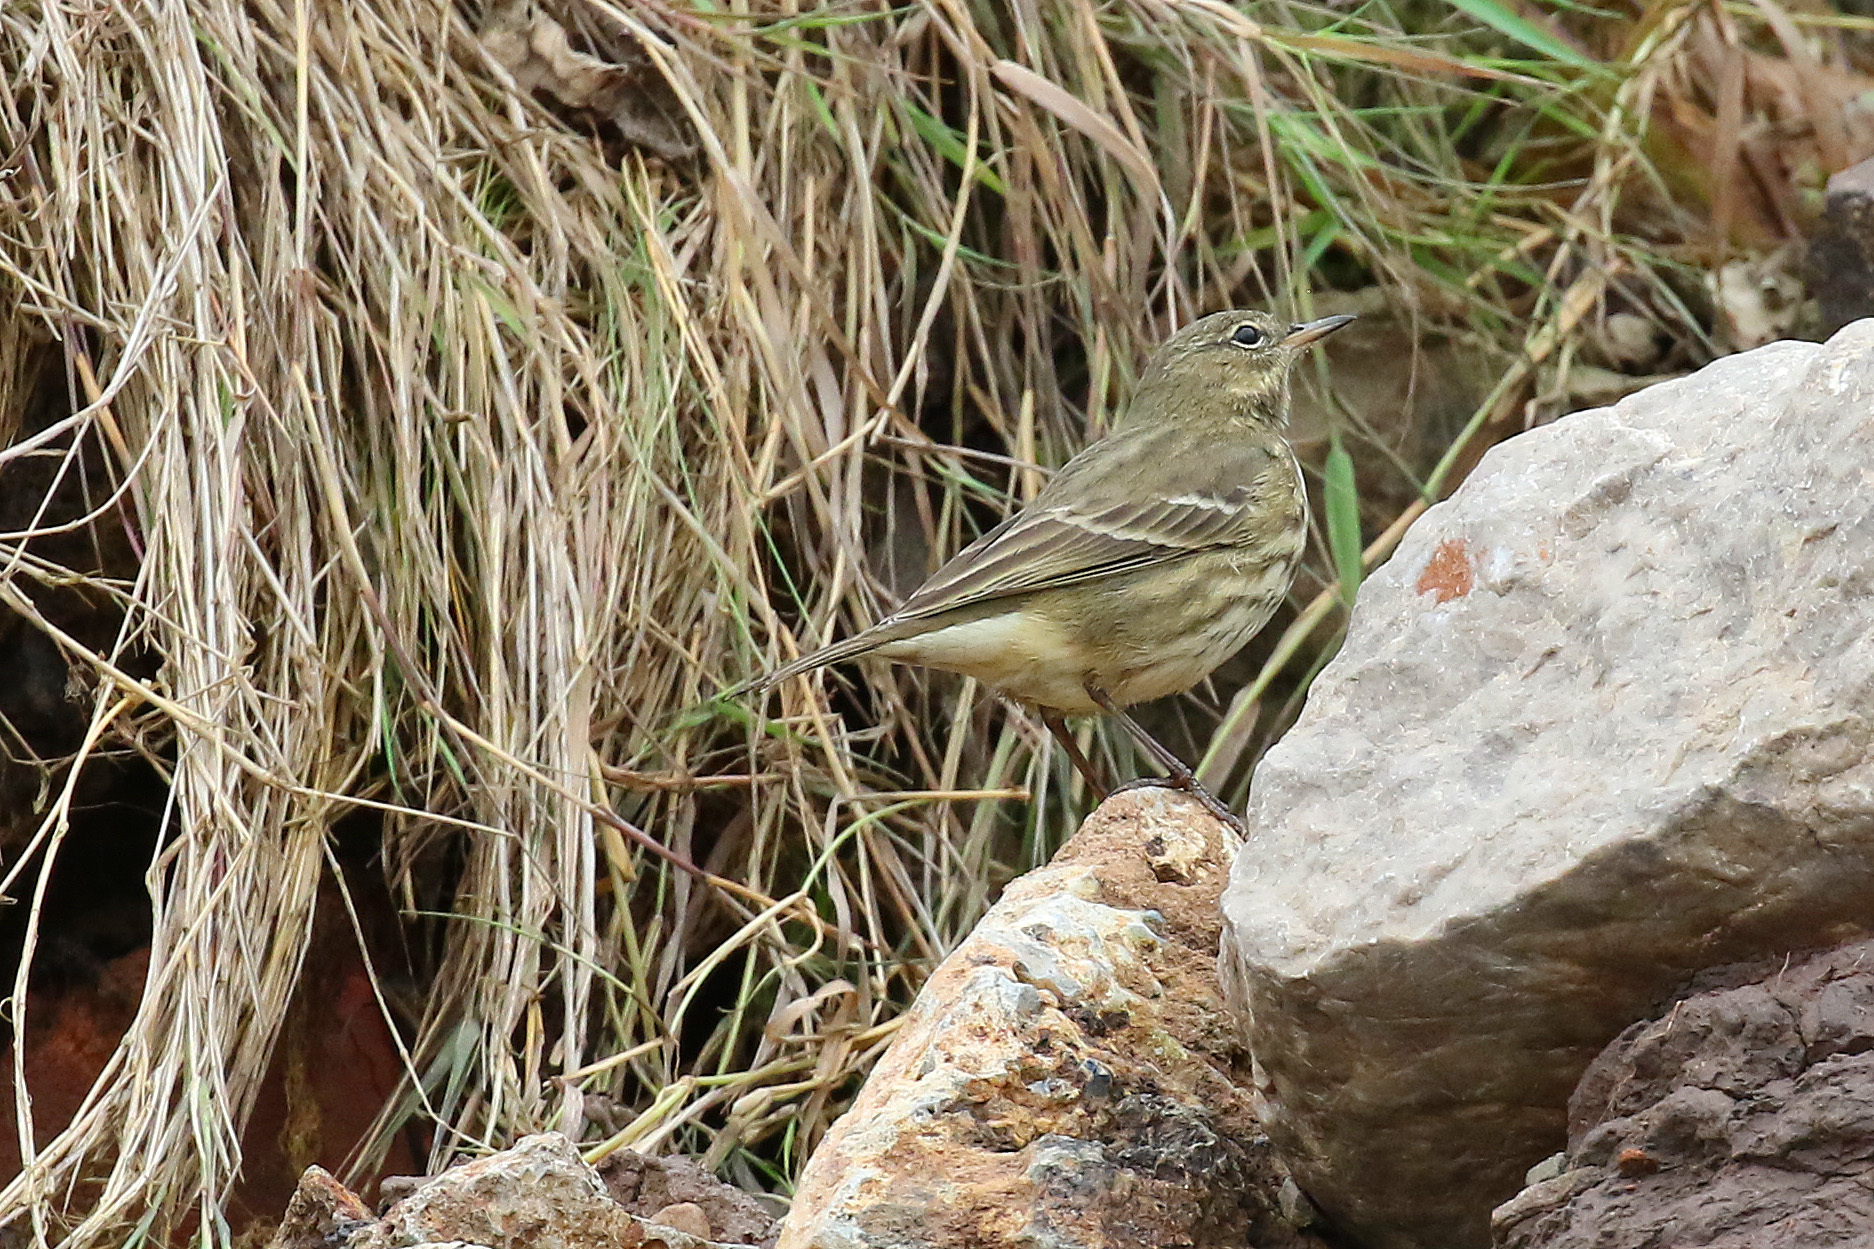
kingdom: Animalia
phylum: Chordata
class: Aves
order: Passeriformes
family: Motacillidae
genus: Anthus
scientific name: Anthus petrosus
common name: Eurasian rock pipit
